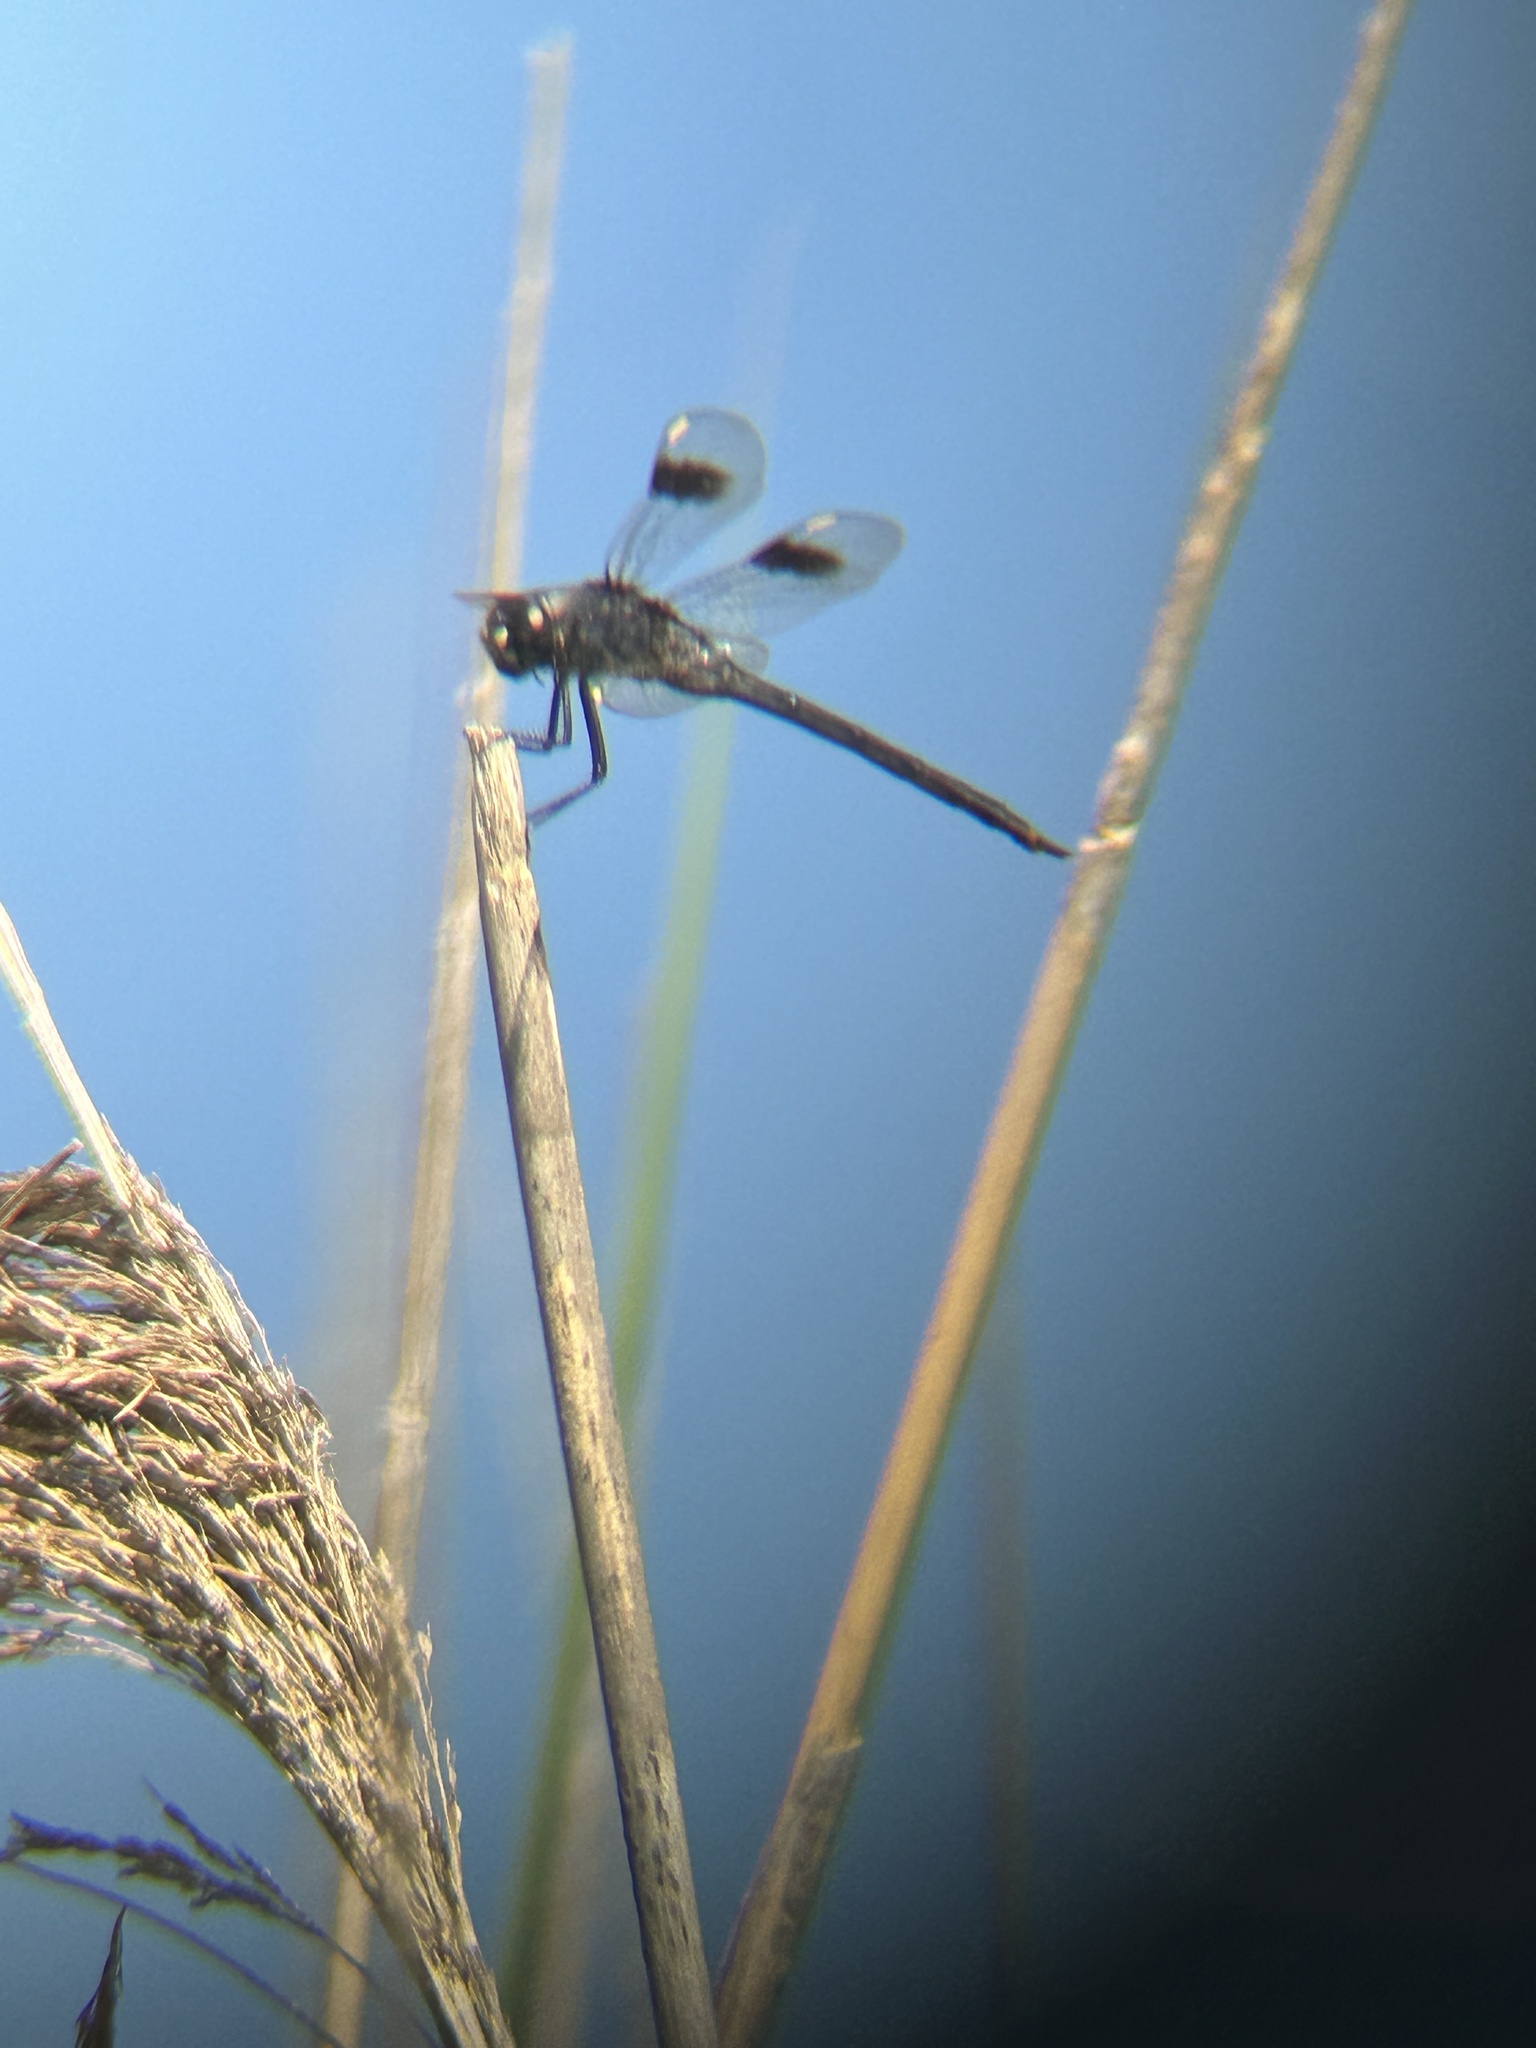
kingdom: Animalia
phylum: Arthropoda
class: Insecta
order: Odonata
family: Libellulidae
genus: Brachymesia
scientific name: Brachymesia gravida
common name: Four-spotted pennant
